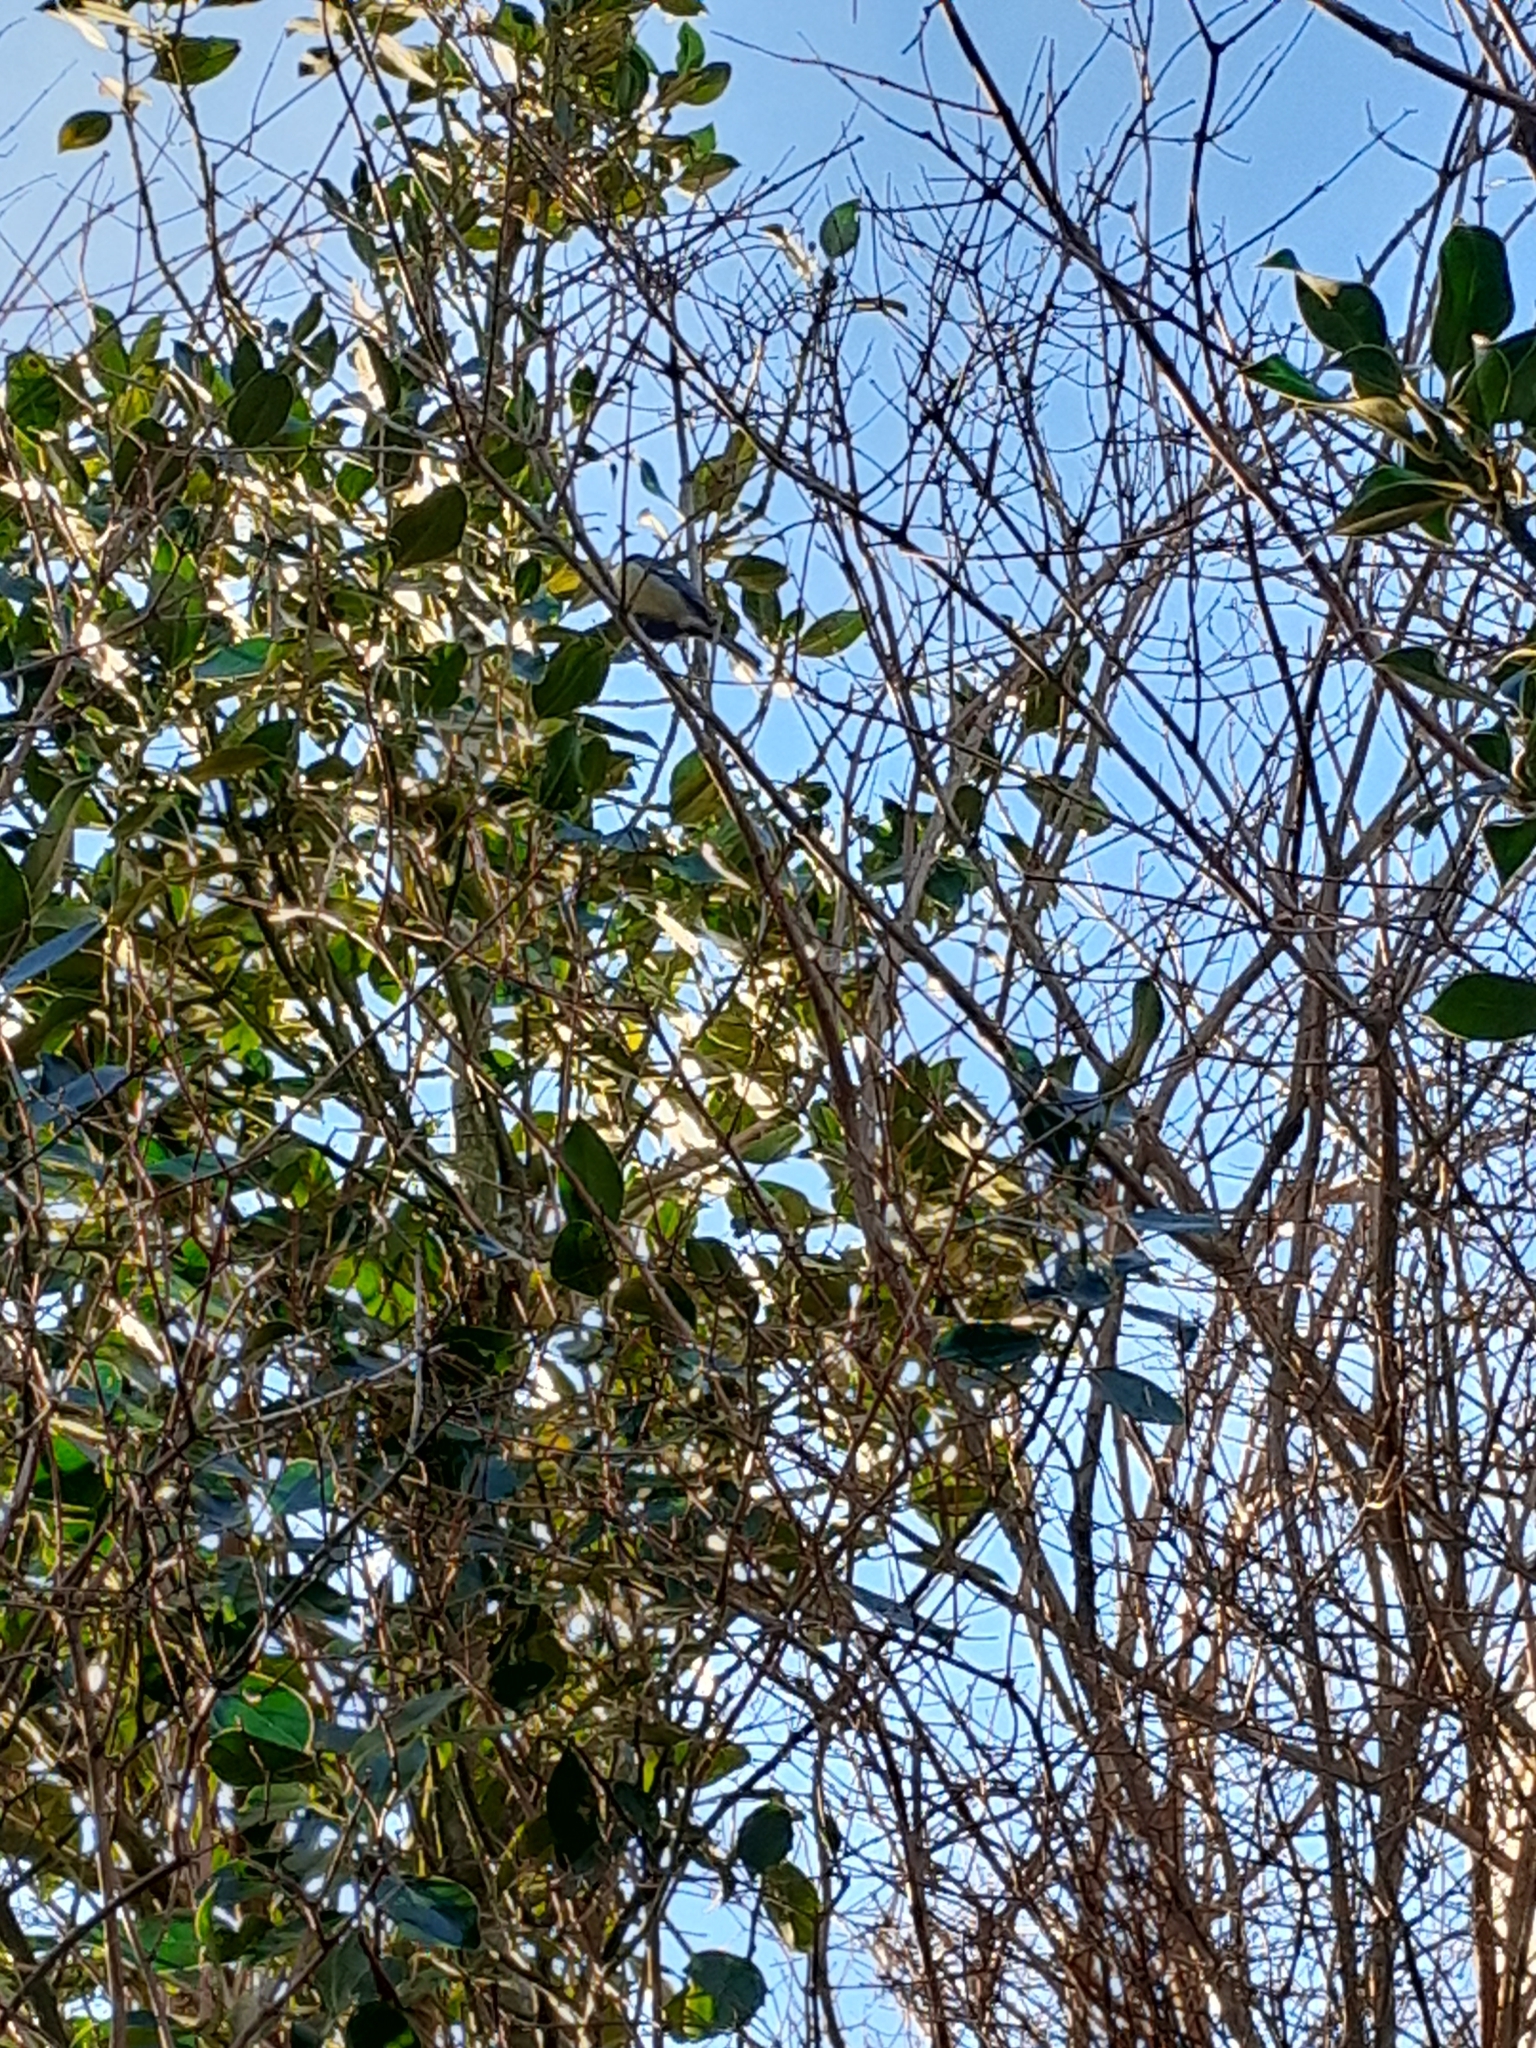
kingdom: Animalia
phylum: Chordata
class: Aves
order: Passeriformes
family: Paridae
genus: Parus
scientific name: Parus major
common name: Great tit
